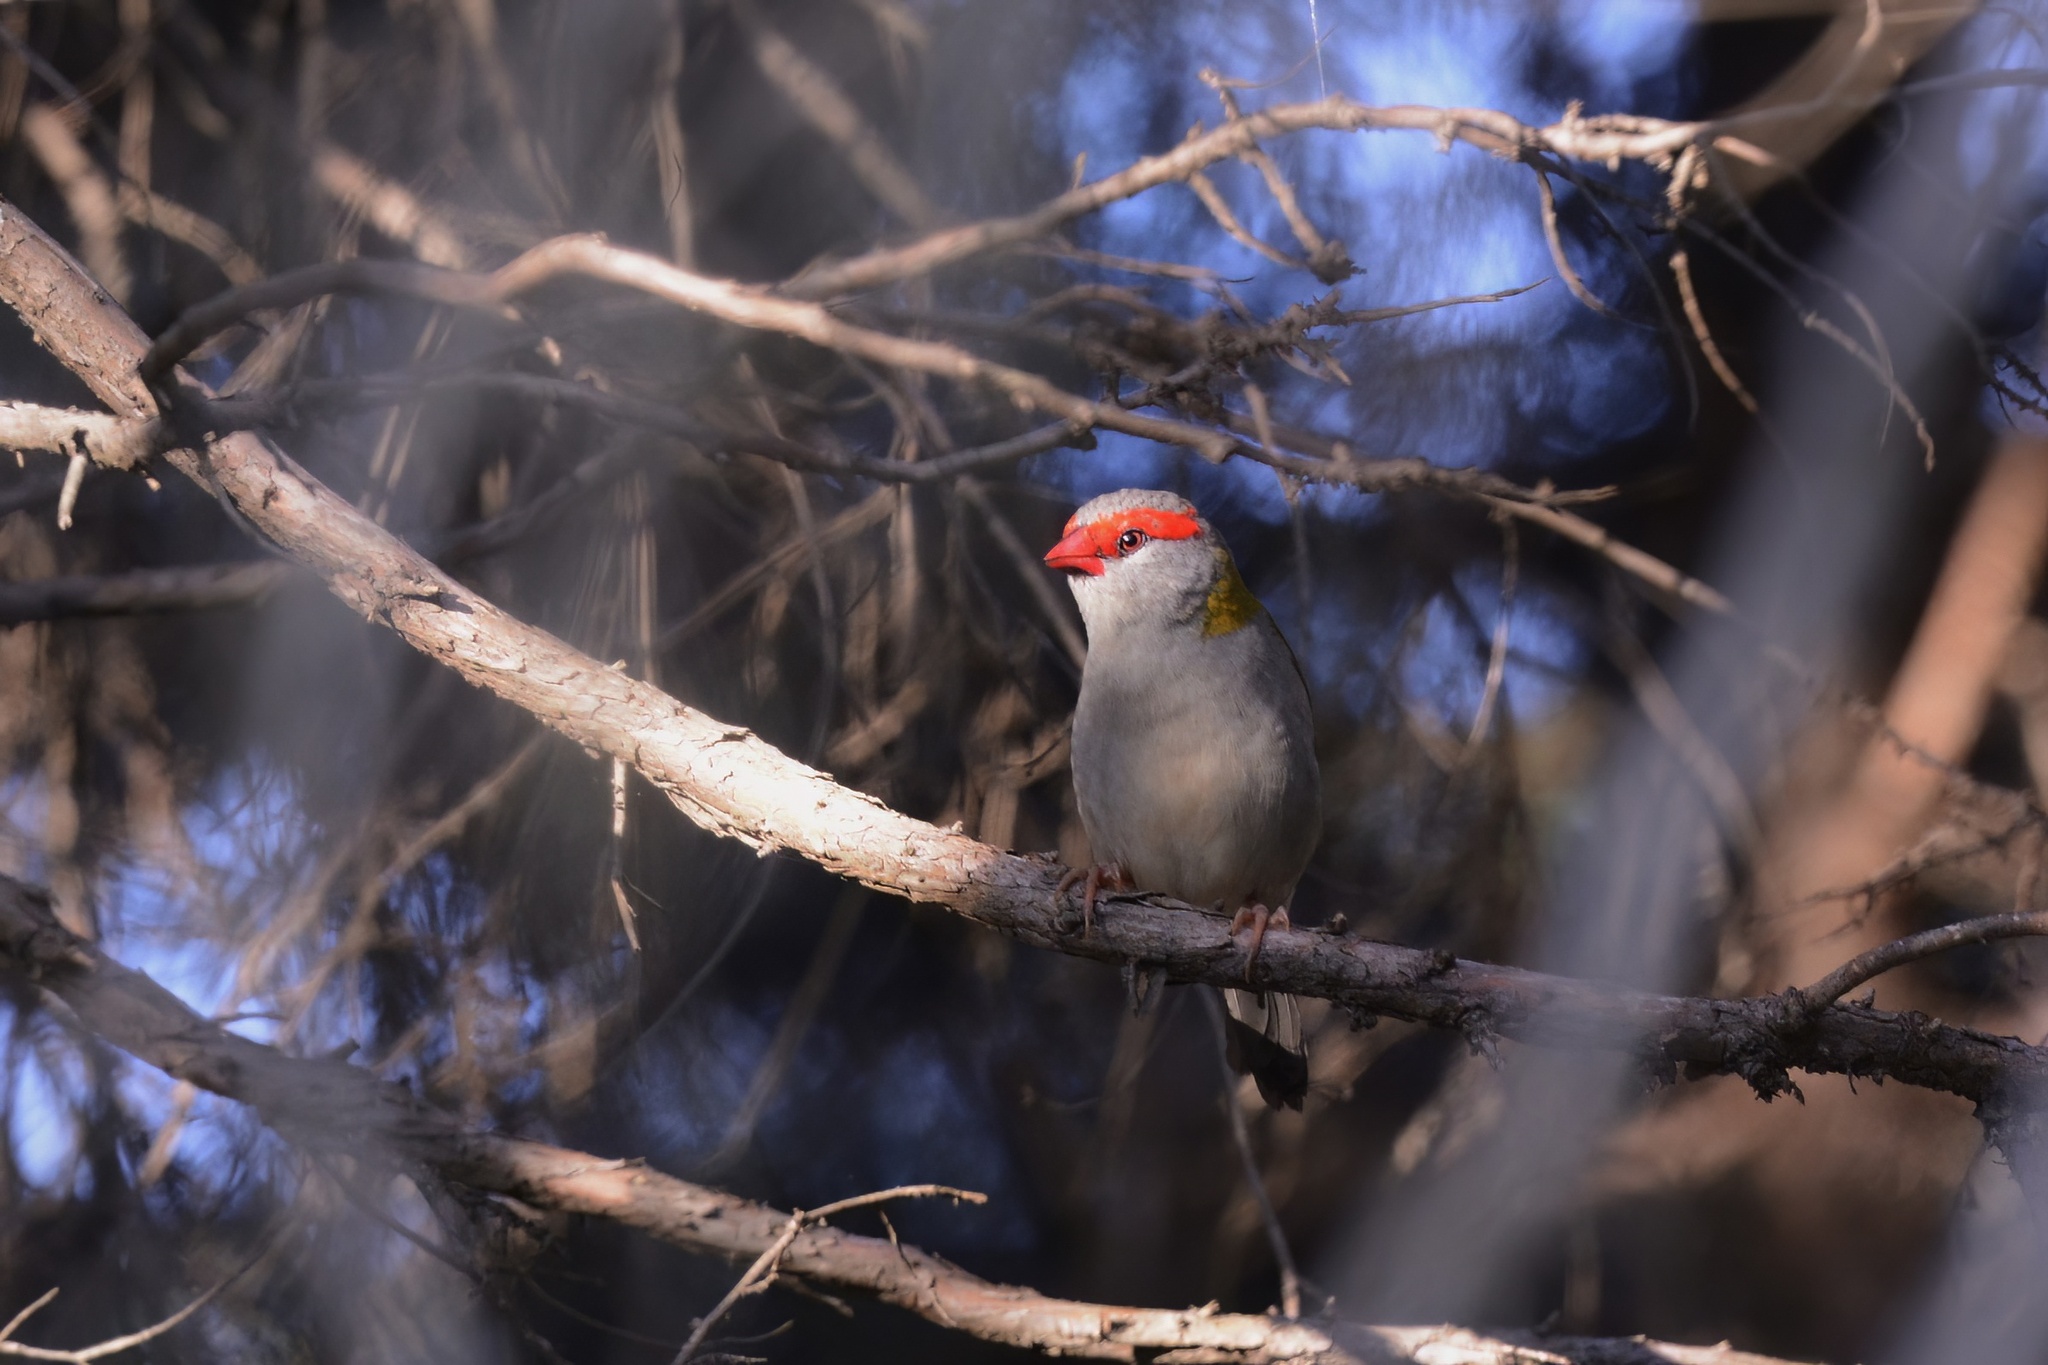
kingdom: Animalia
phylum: Chordata
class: Aves
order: Passeriformes
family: Estrildidae
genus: Neochmia
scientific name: Neochmia temporalis
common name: Red-browed finch
